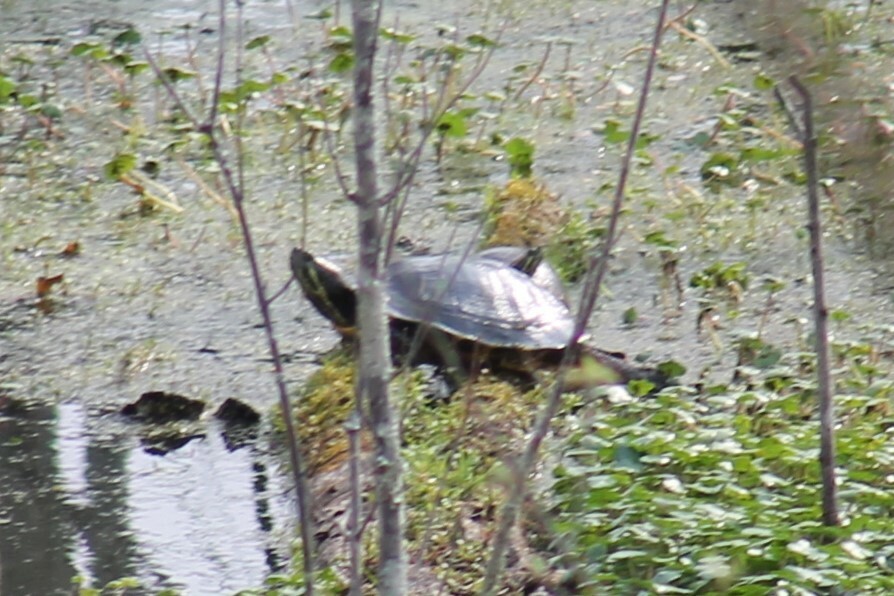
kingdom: Animalia
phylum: Chordata
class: Testudines
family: Emydidae
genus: Trachemys
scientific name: Trachemys scripta
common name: Slider
